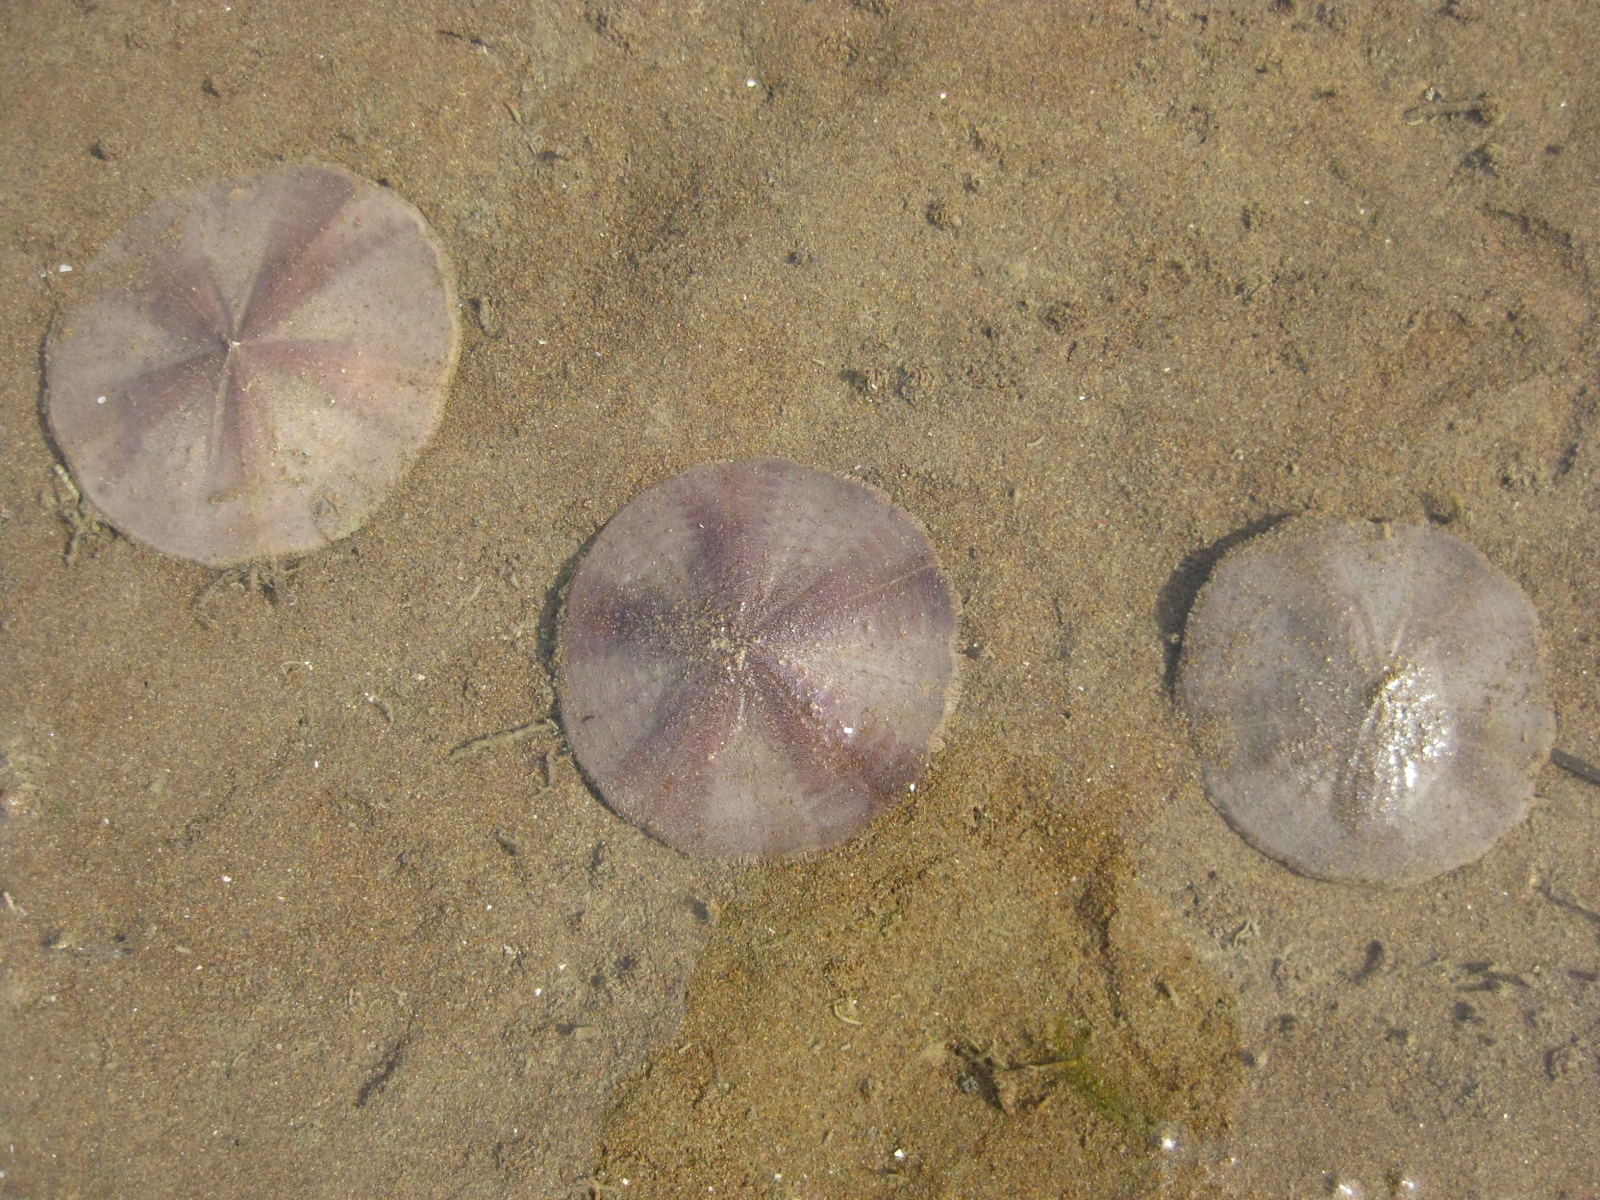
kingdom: Animalia
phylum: Echinodermata
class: Echinoidea
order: Clypeasteroida
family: Clypeasteridae
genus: Fellaster
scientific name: Fellaster zelandiae
